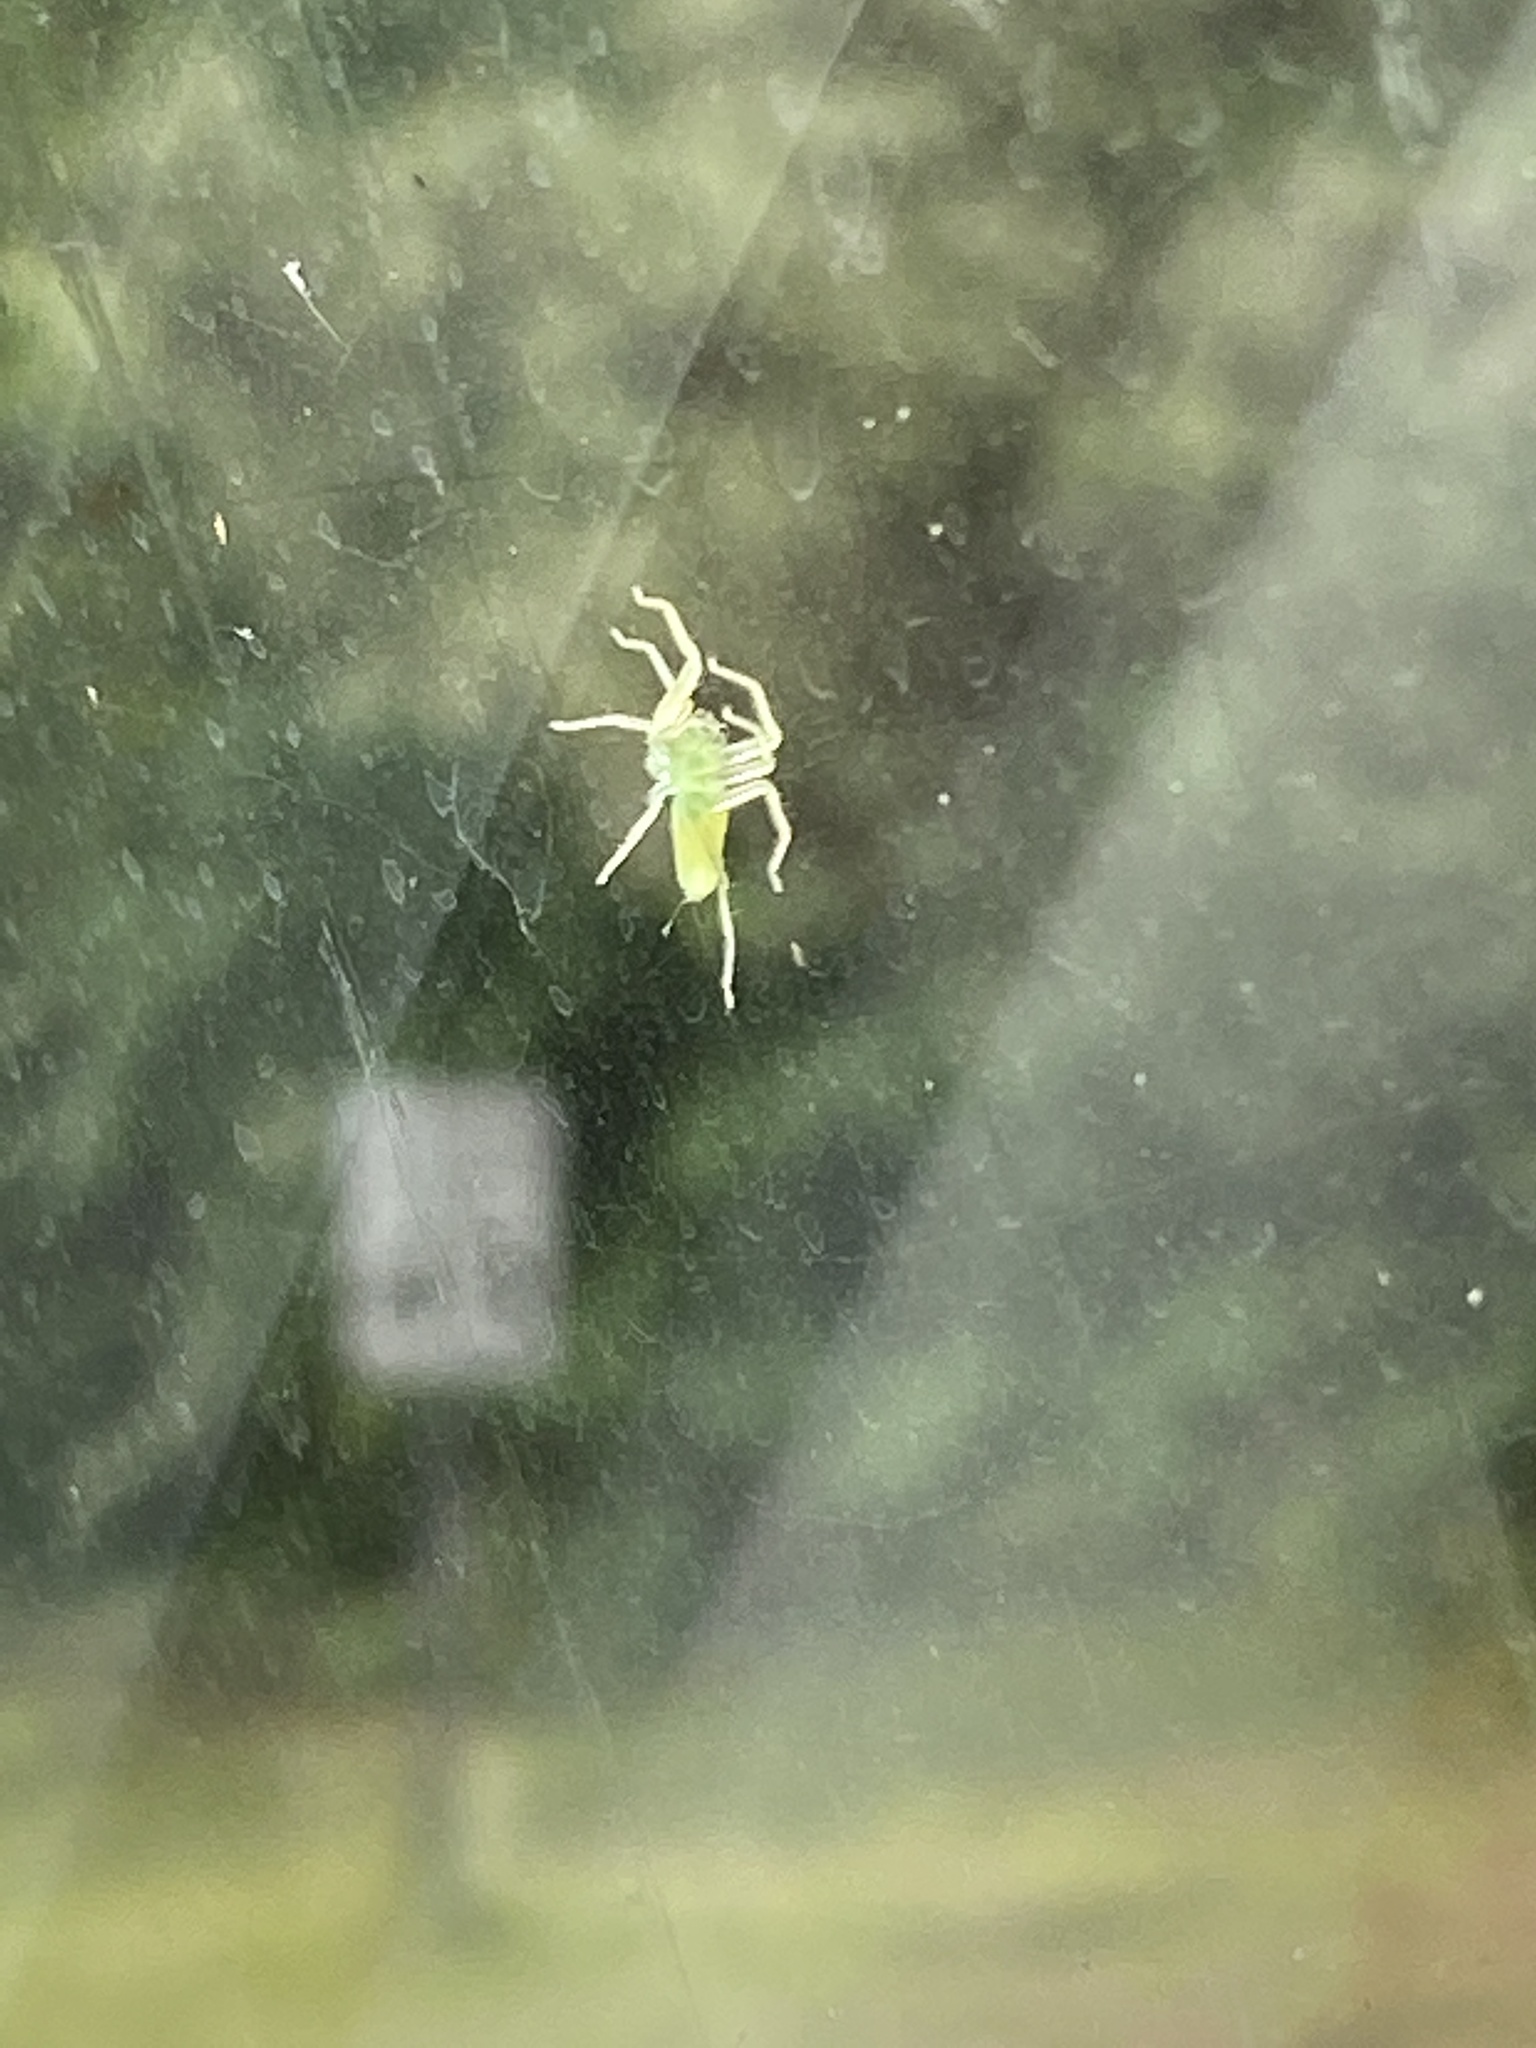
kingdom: Animalia
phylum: Arthropoda
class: Arachnida
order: Araneae
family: Salticidae
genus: Lyssomanes
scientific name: Lyssomanes viridis
